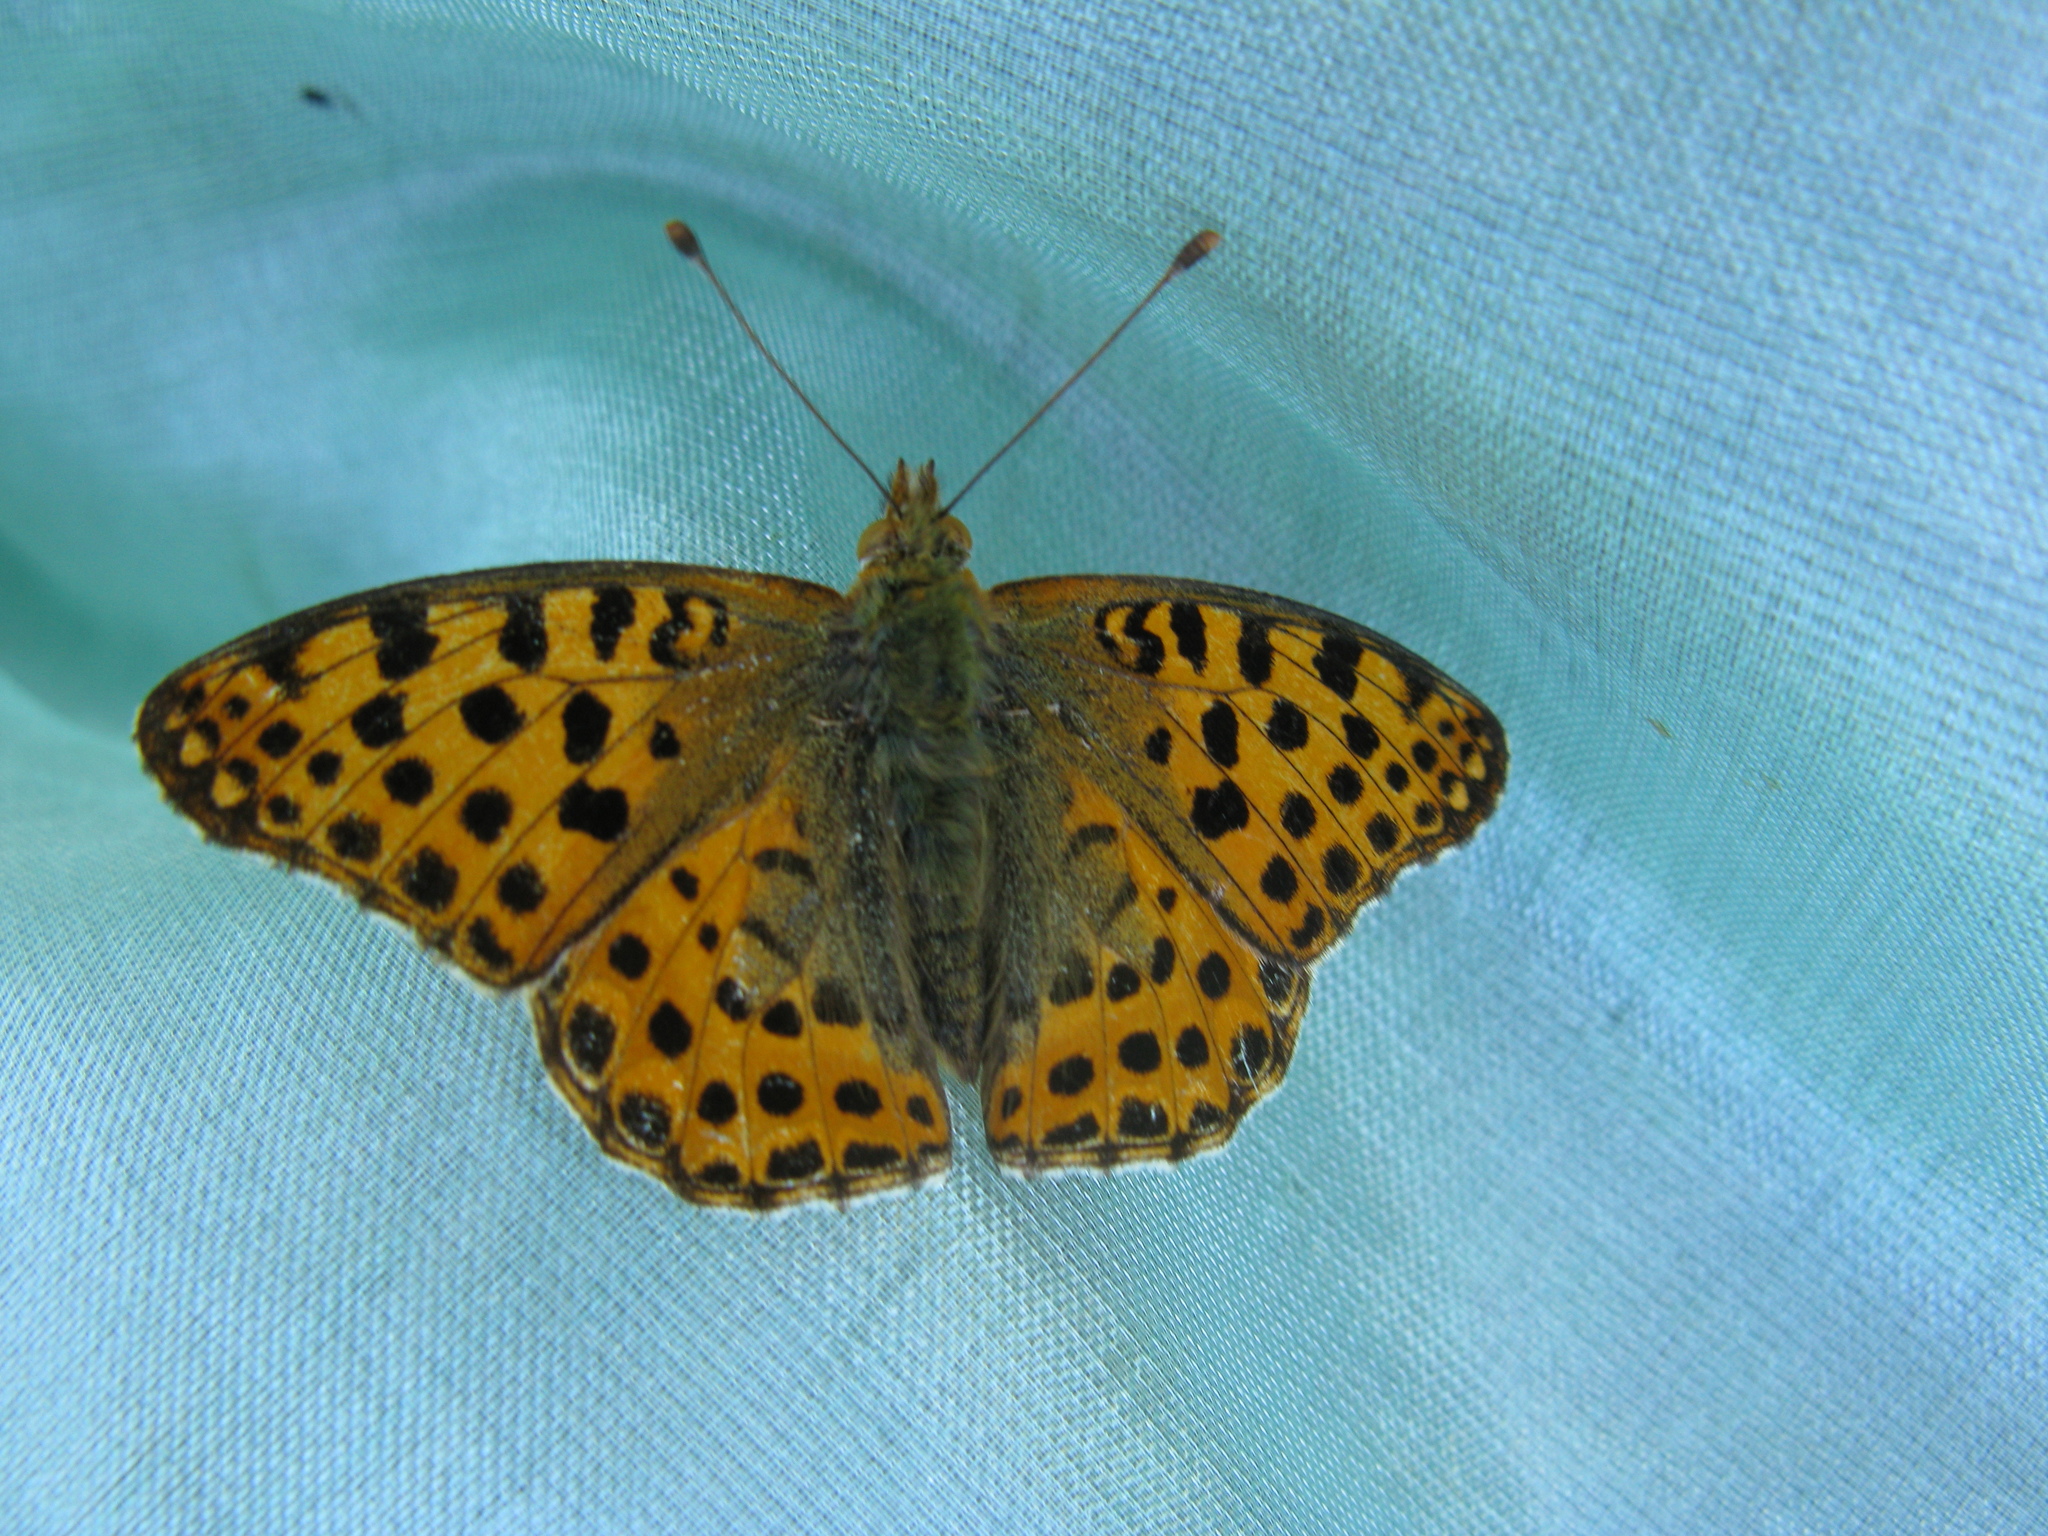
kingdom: Animalia
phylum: Arthropoda
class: Insecta
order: Lepidoptera
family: Nymphalidae
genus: Issoria
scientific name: Issoria lathonia
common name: Queen of spain fritillary
